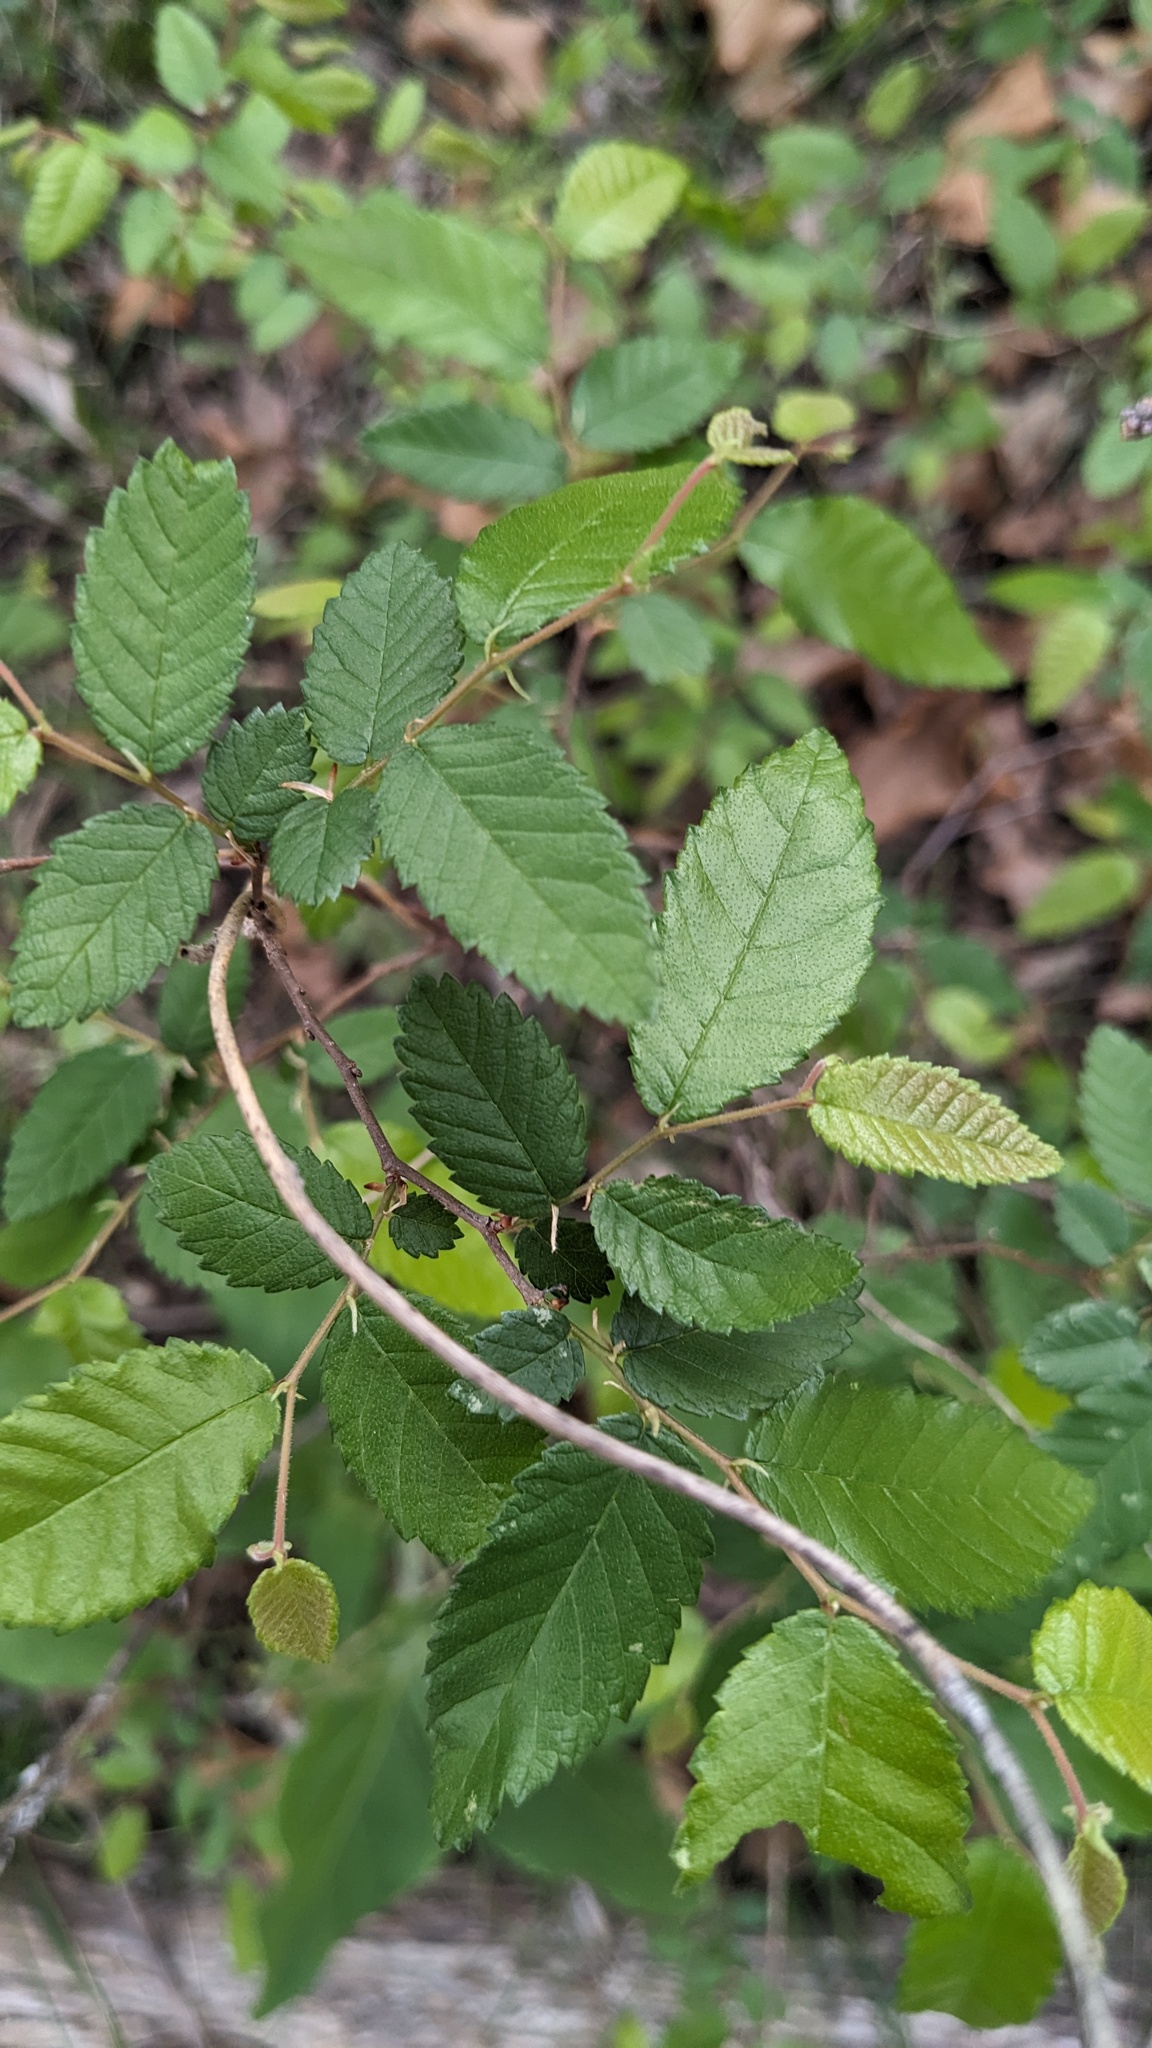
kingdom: Plantae
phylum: Tracheophyta
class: Magnoliopsida
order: Rosales
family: Ulmaceae
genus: Ulmus
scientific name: Ulmus crassifolia
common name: Basket elm
